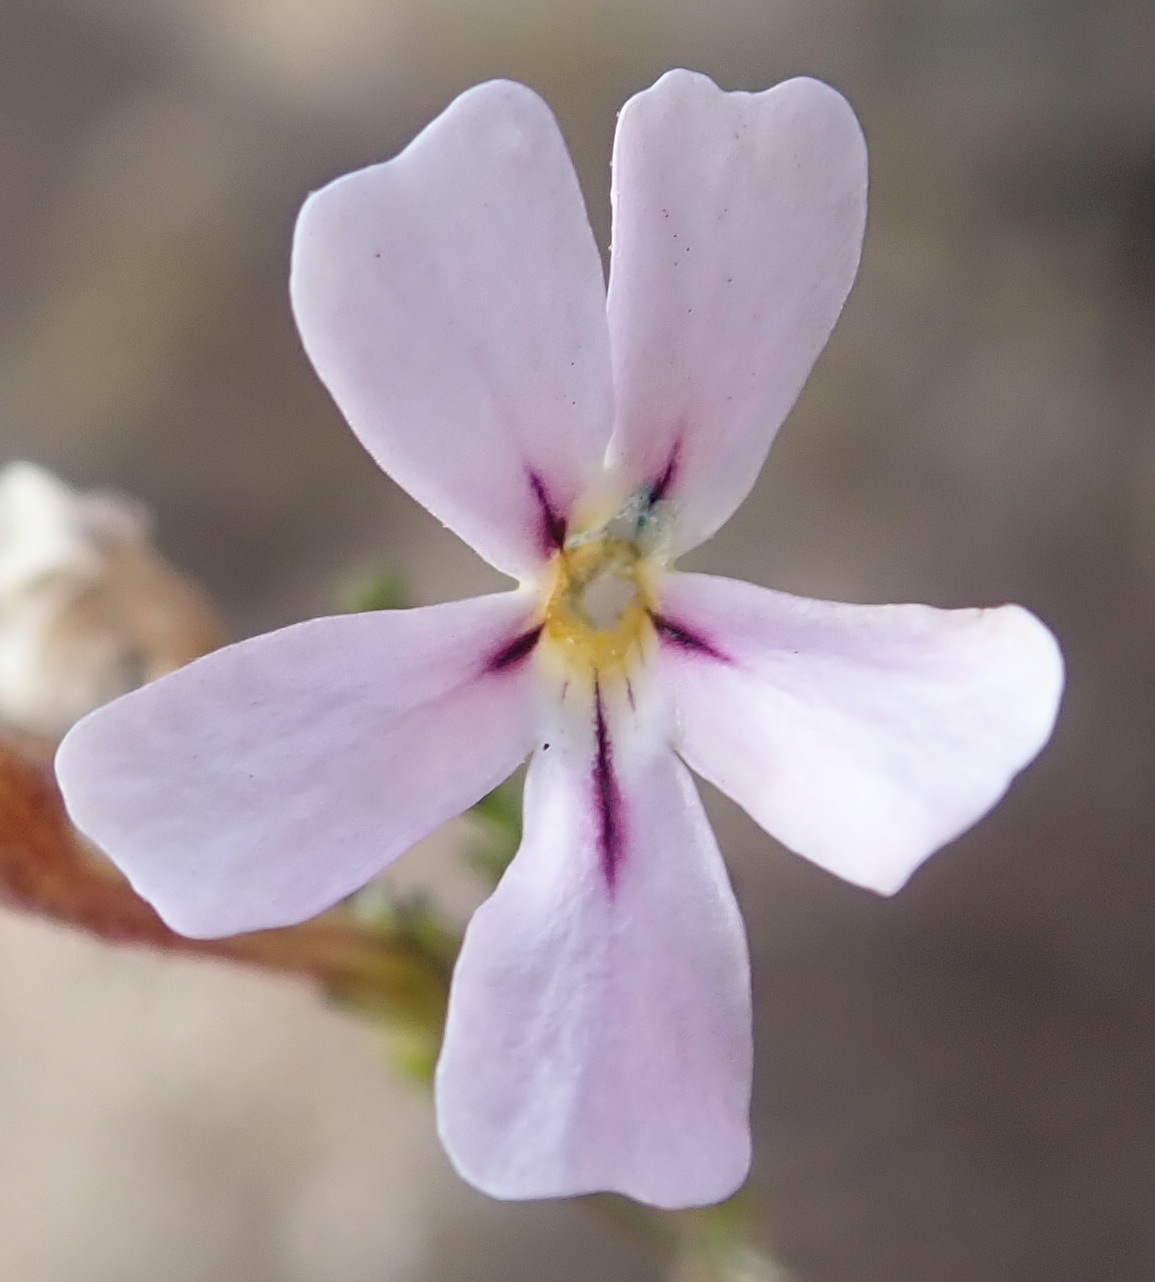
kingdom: Plantae
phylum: Tracheophyta
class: Magnoliopsida
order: Lamiales
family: Scrophulariaceae
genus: Jamesbrittenia
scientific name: Jamesbrittenia tortuosa
